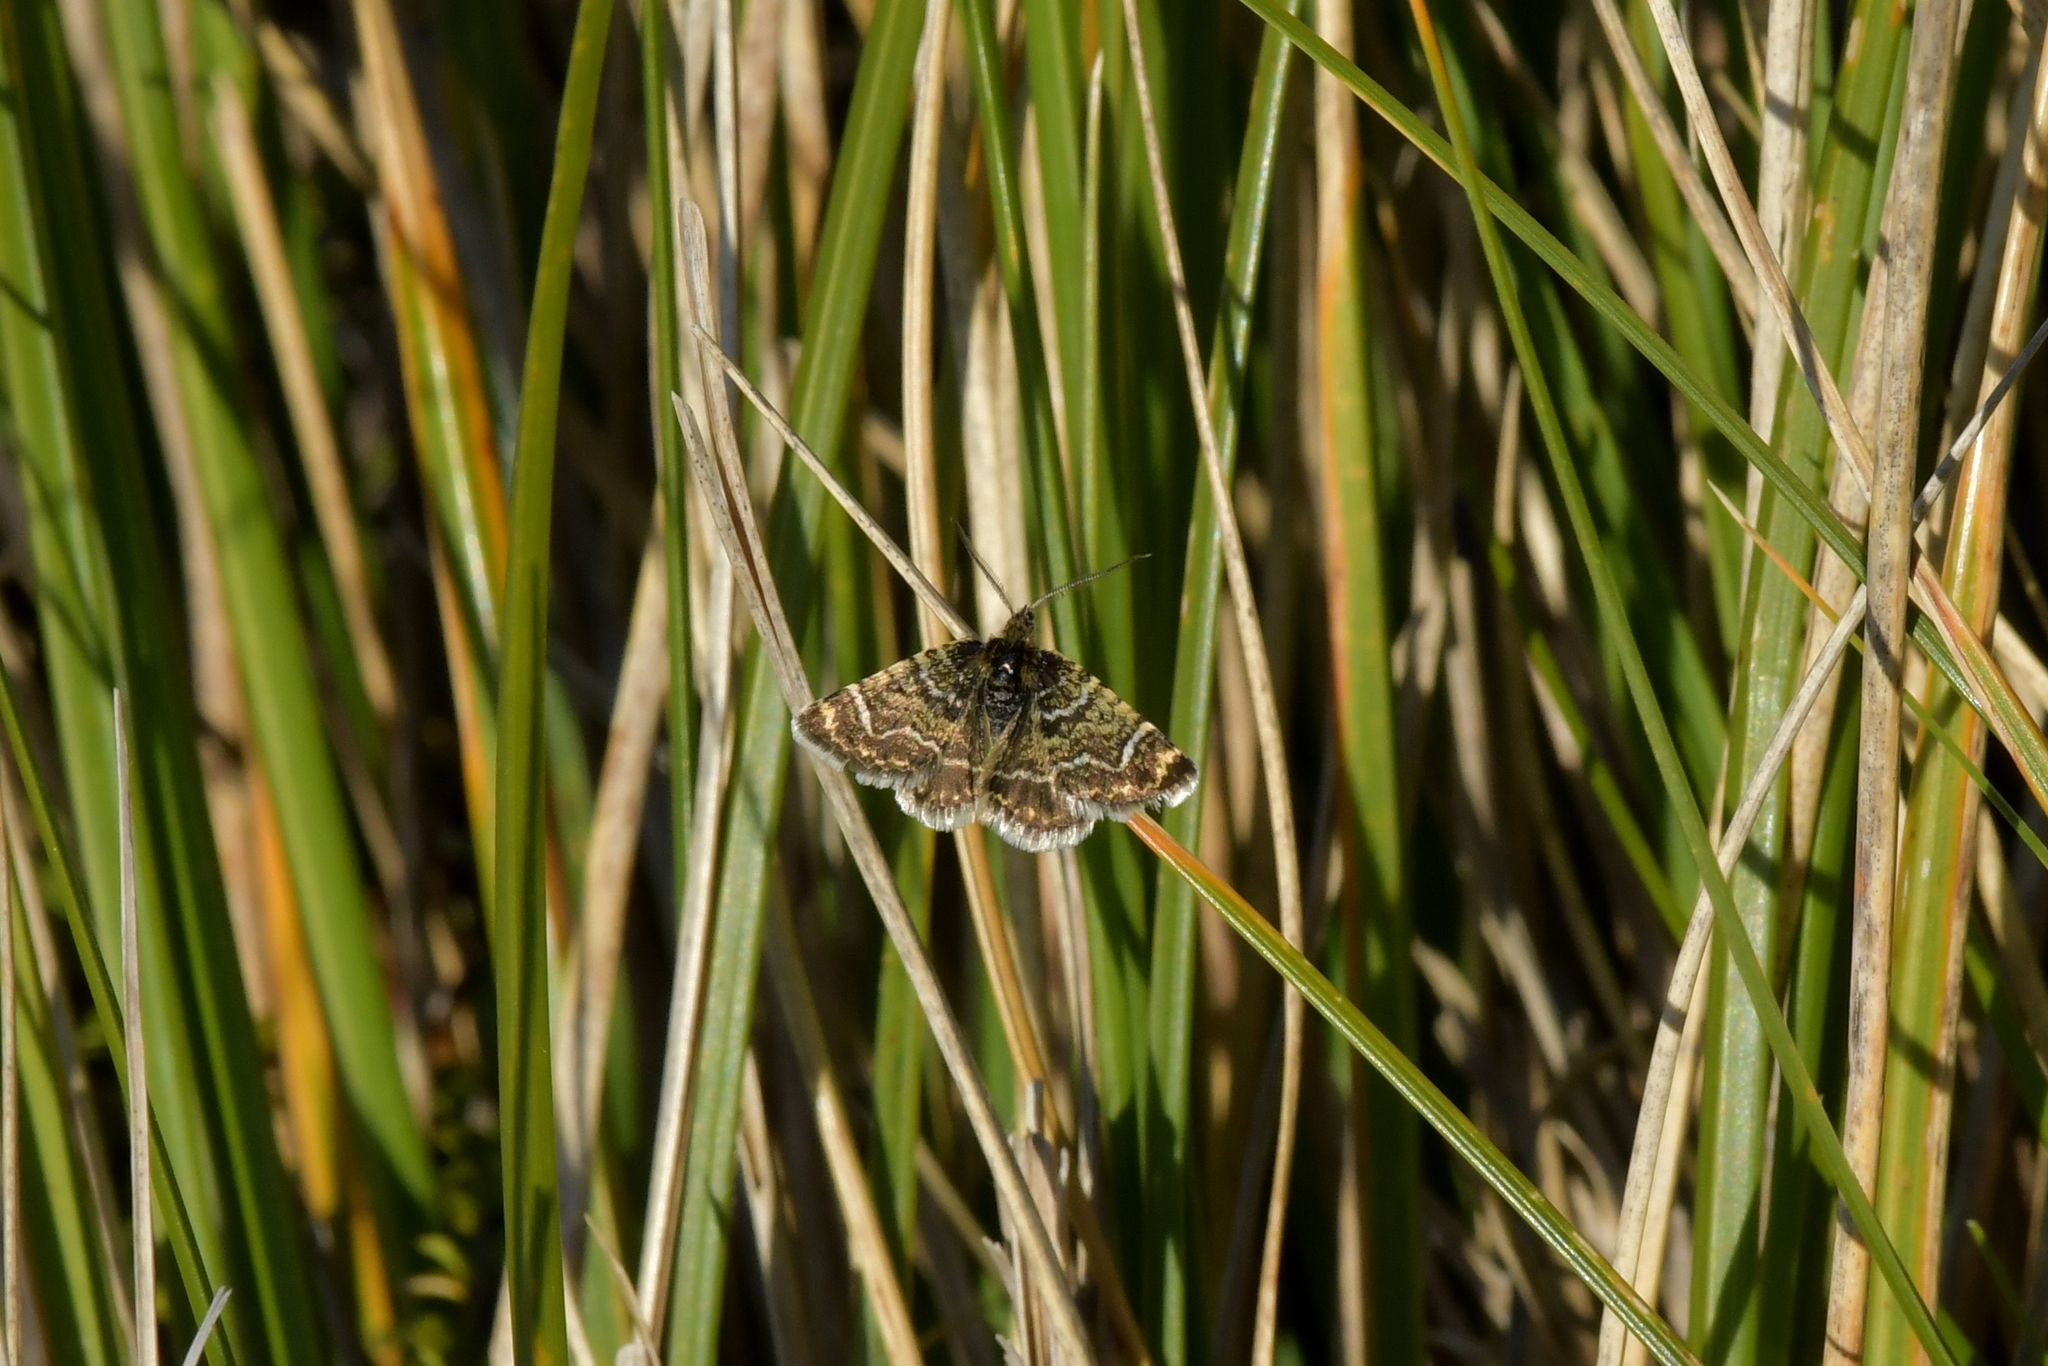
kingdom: Animalia
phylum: Arthropoda
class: Insecta
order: Lepidoptera
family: Geometridae
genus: Notoreas
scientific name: Notoreas atmogramma
